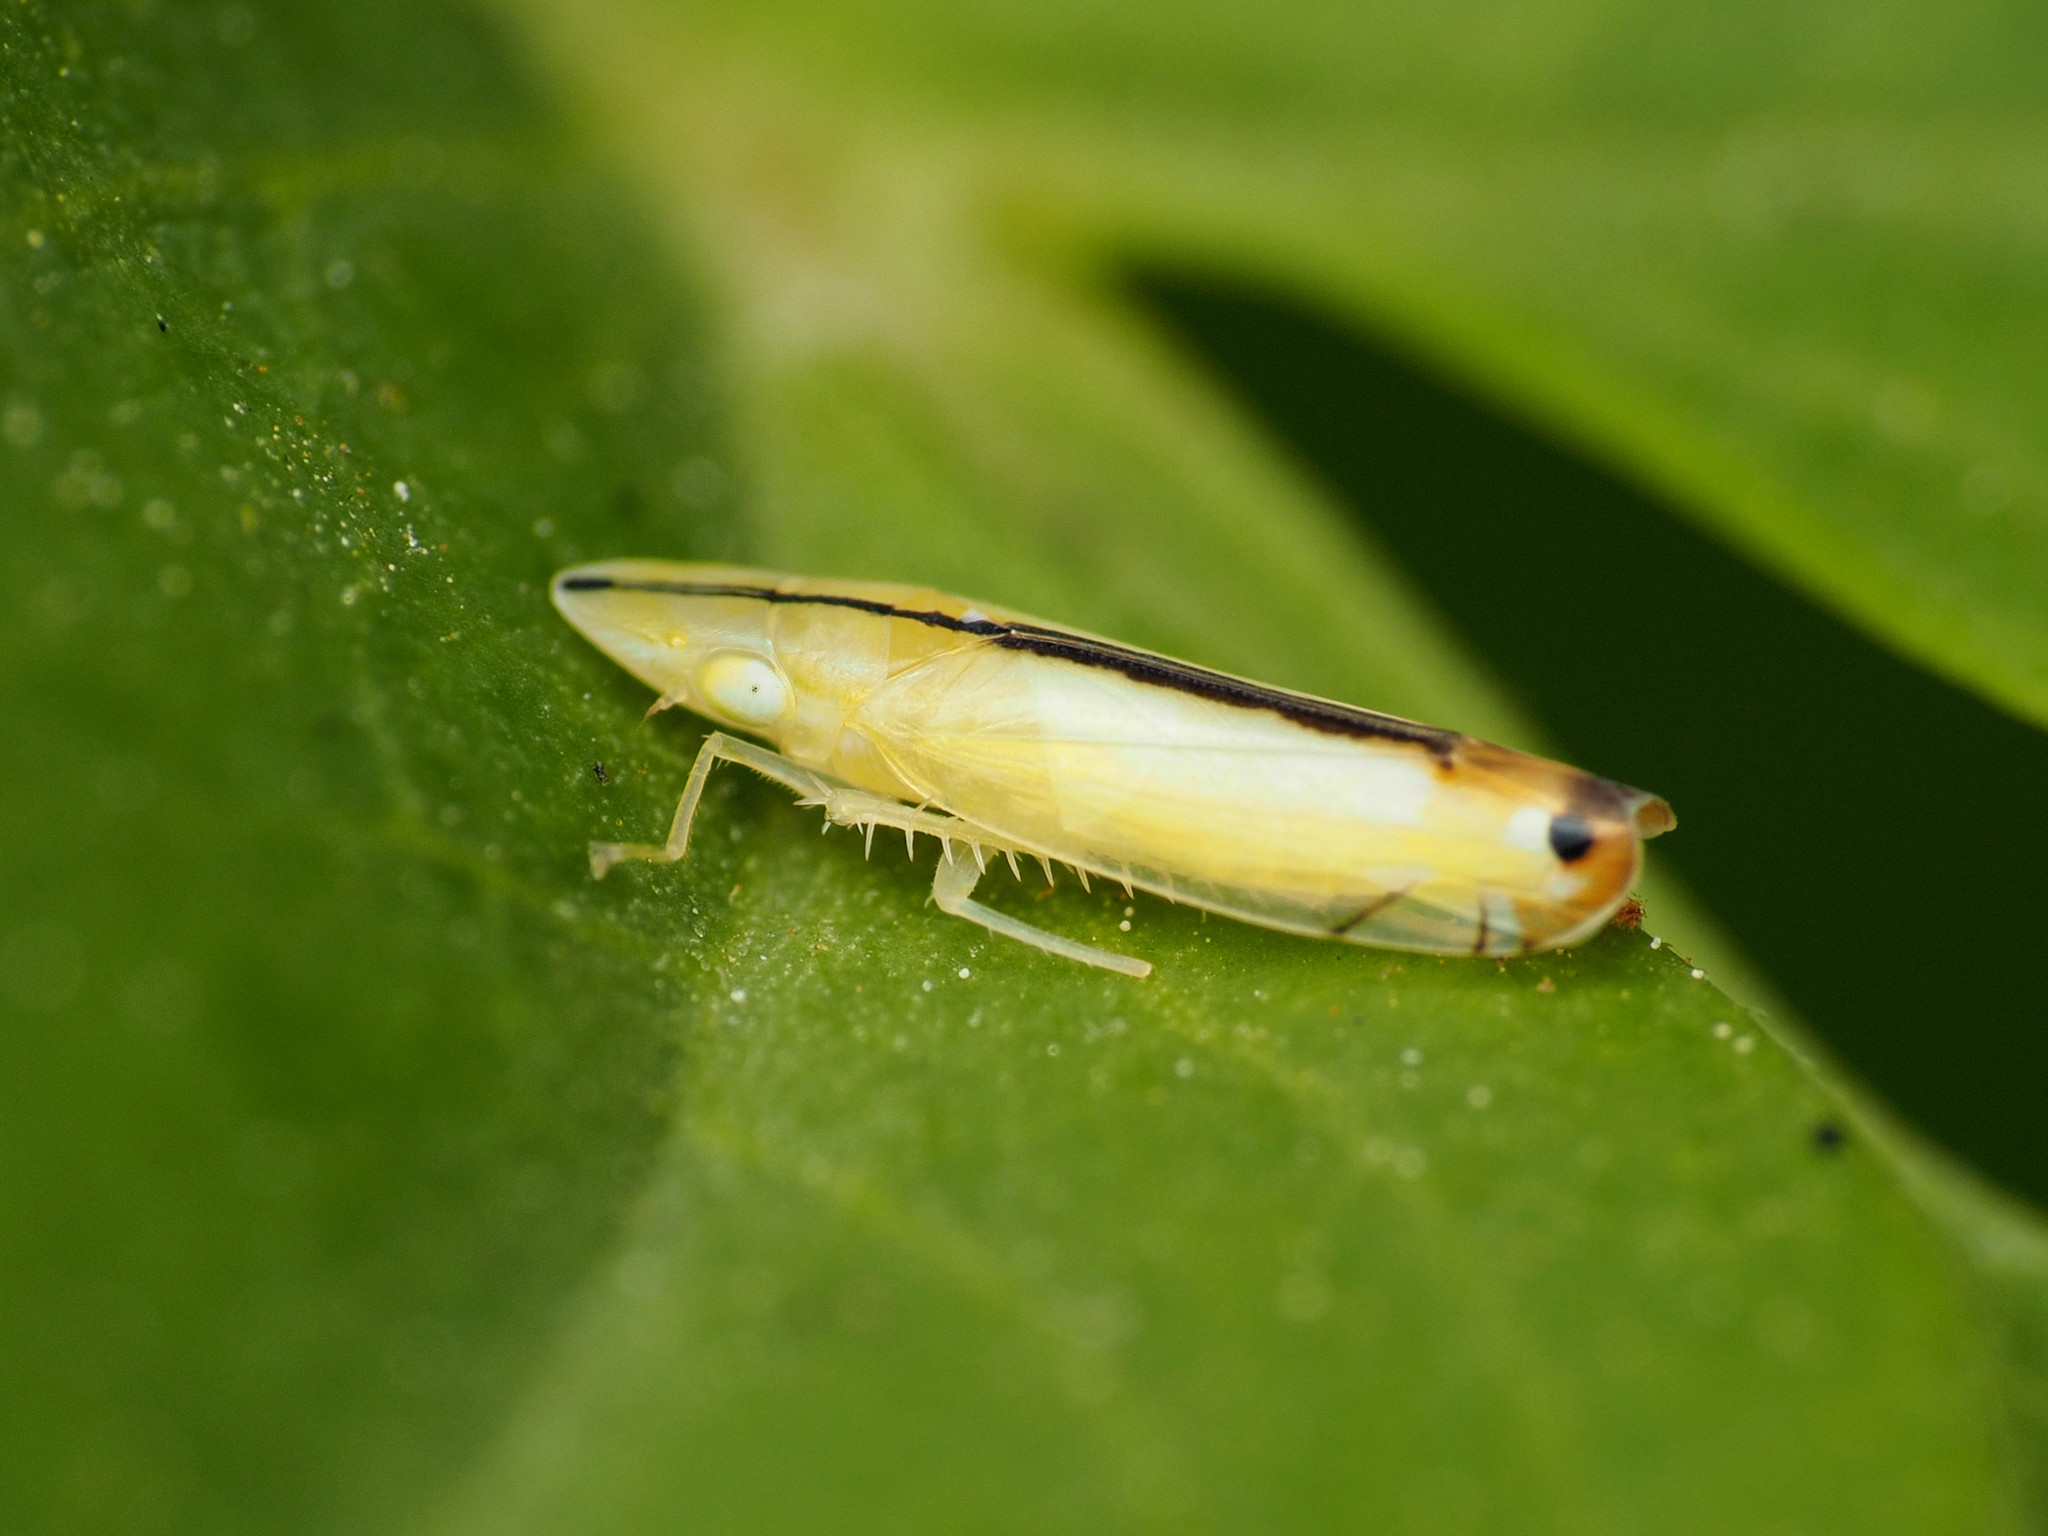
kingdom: Animalia
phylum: Arthropoda
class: Insecta
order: Hemiptera
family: Cicadellidae
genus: Sophonia
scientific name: Sophonia orientalis
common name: Two-spotted leafhopper
